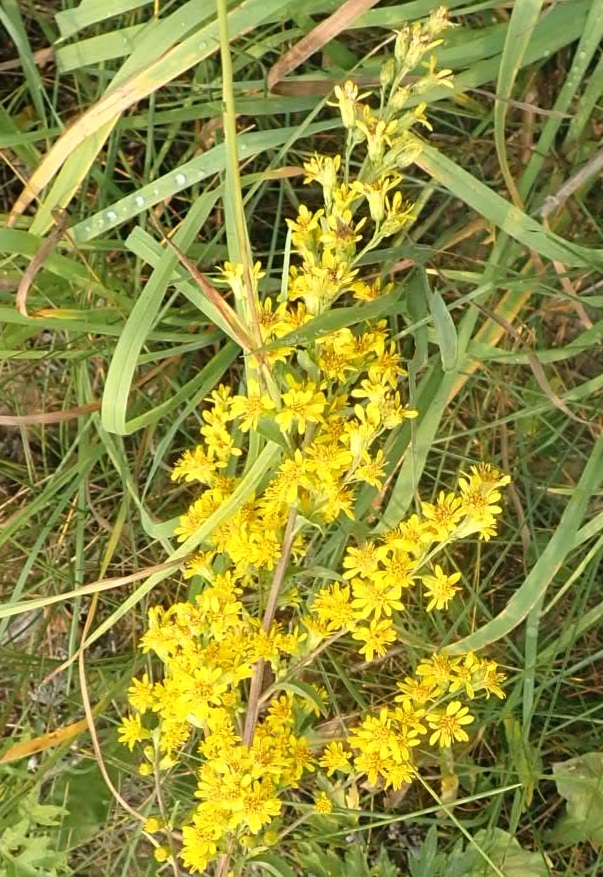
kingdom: Plantae
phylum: Tracheophyta
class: Magnoliopsida
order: Asterales
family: Asteraceae
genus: Solidago
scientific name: Solidago virgaurea
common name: Goldenrod
